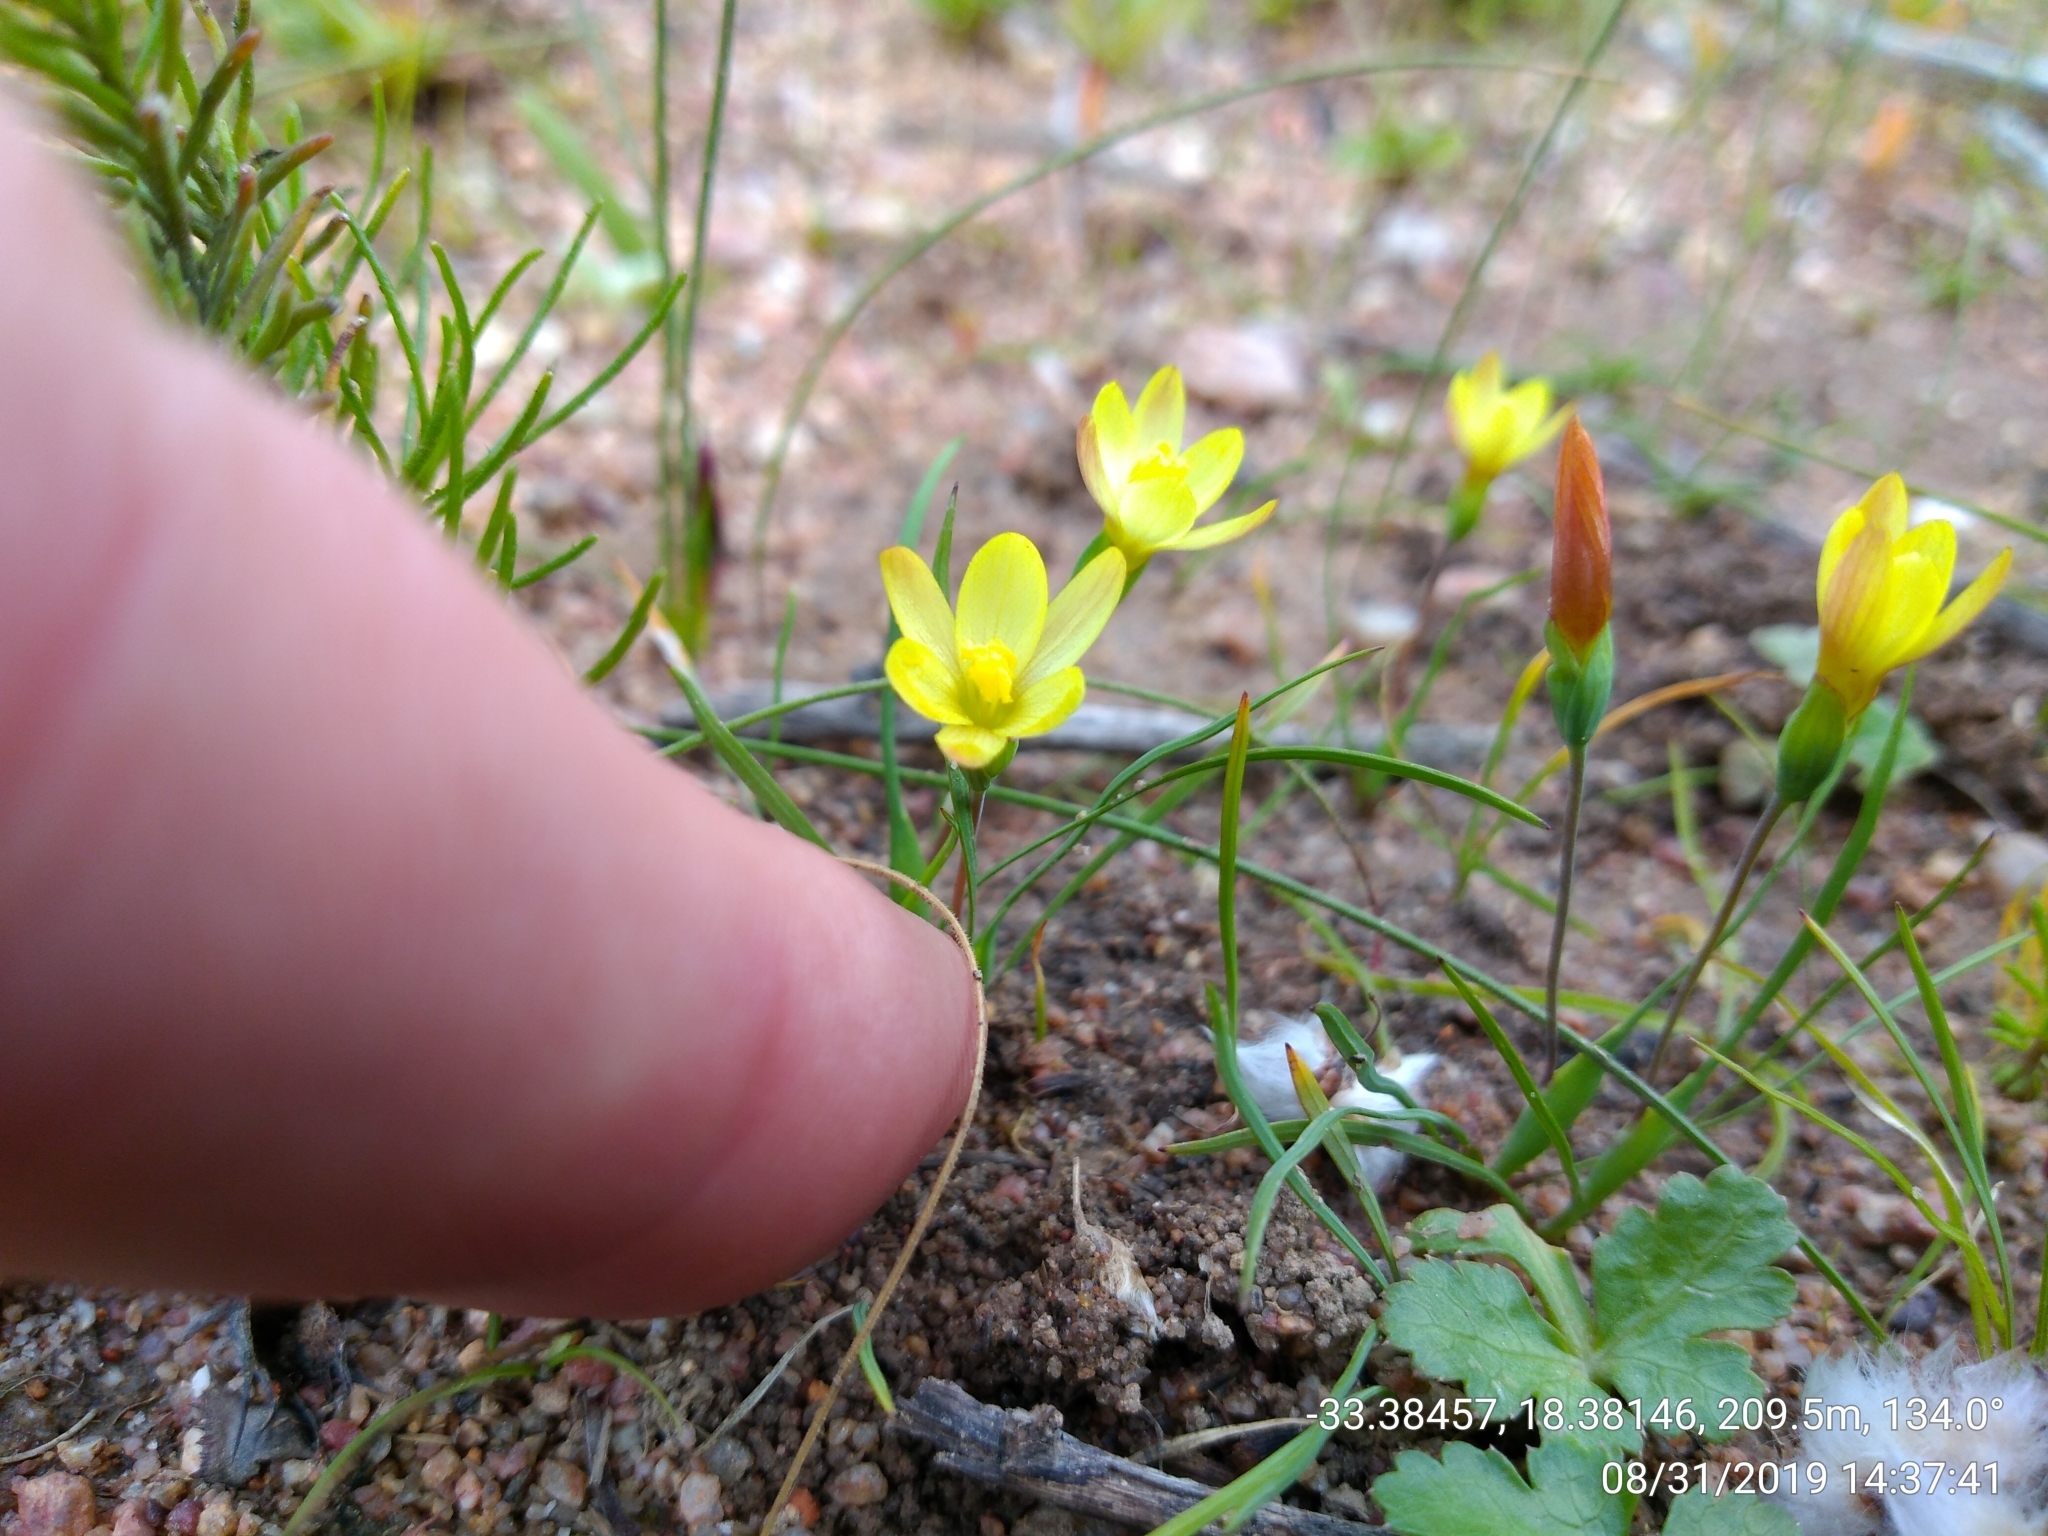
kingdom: Plantae
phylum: Tracheophyta
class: Liliopsida
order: Asparagales
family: Iridaceae
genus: Geissorhiza
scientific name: Geissorhiza platystigma
